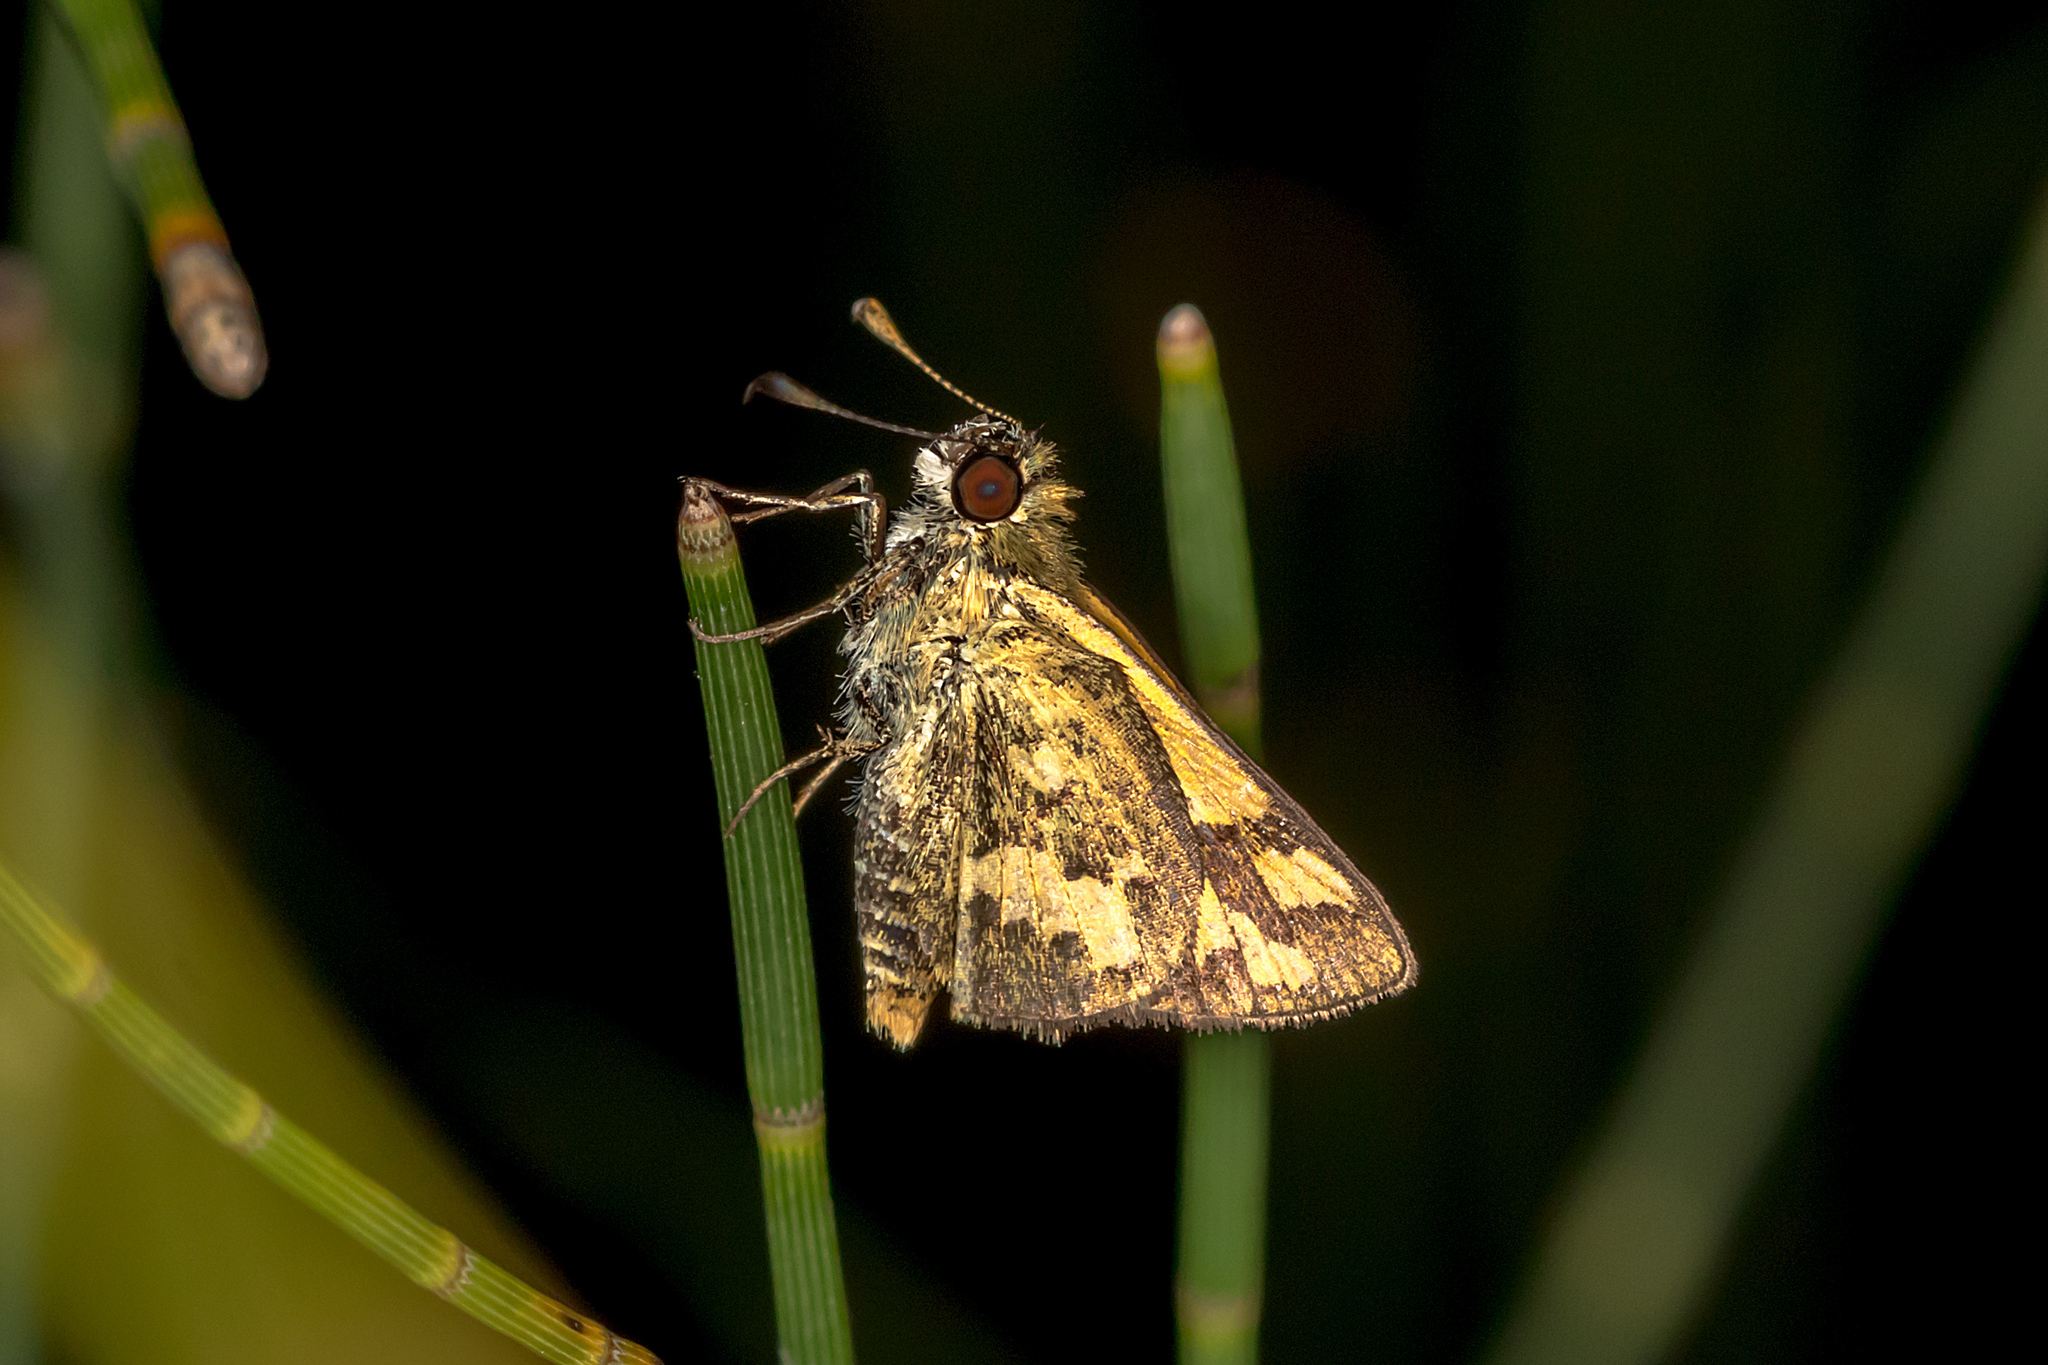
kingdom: Animalia
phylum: Arthropoda
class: Insecta
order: Lepidoptera
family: Hesperiidae
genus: Ocybadistes
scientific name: Ocybadistes flavovittata
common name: Narrow-brand grass-dart
